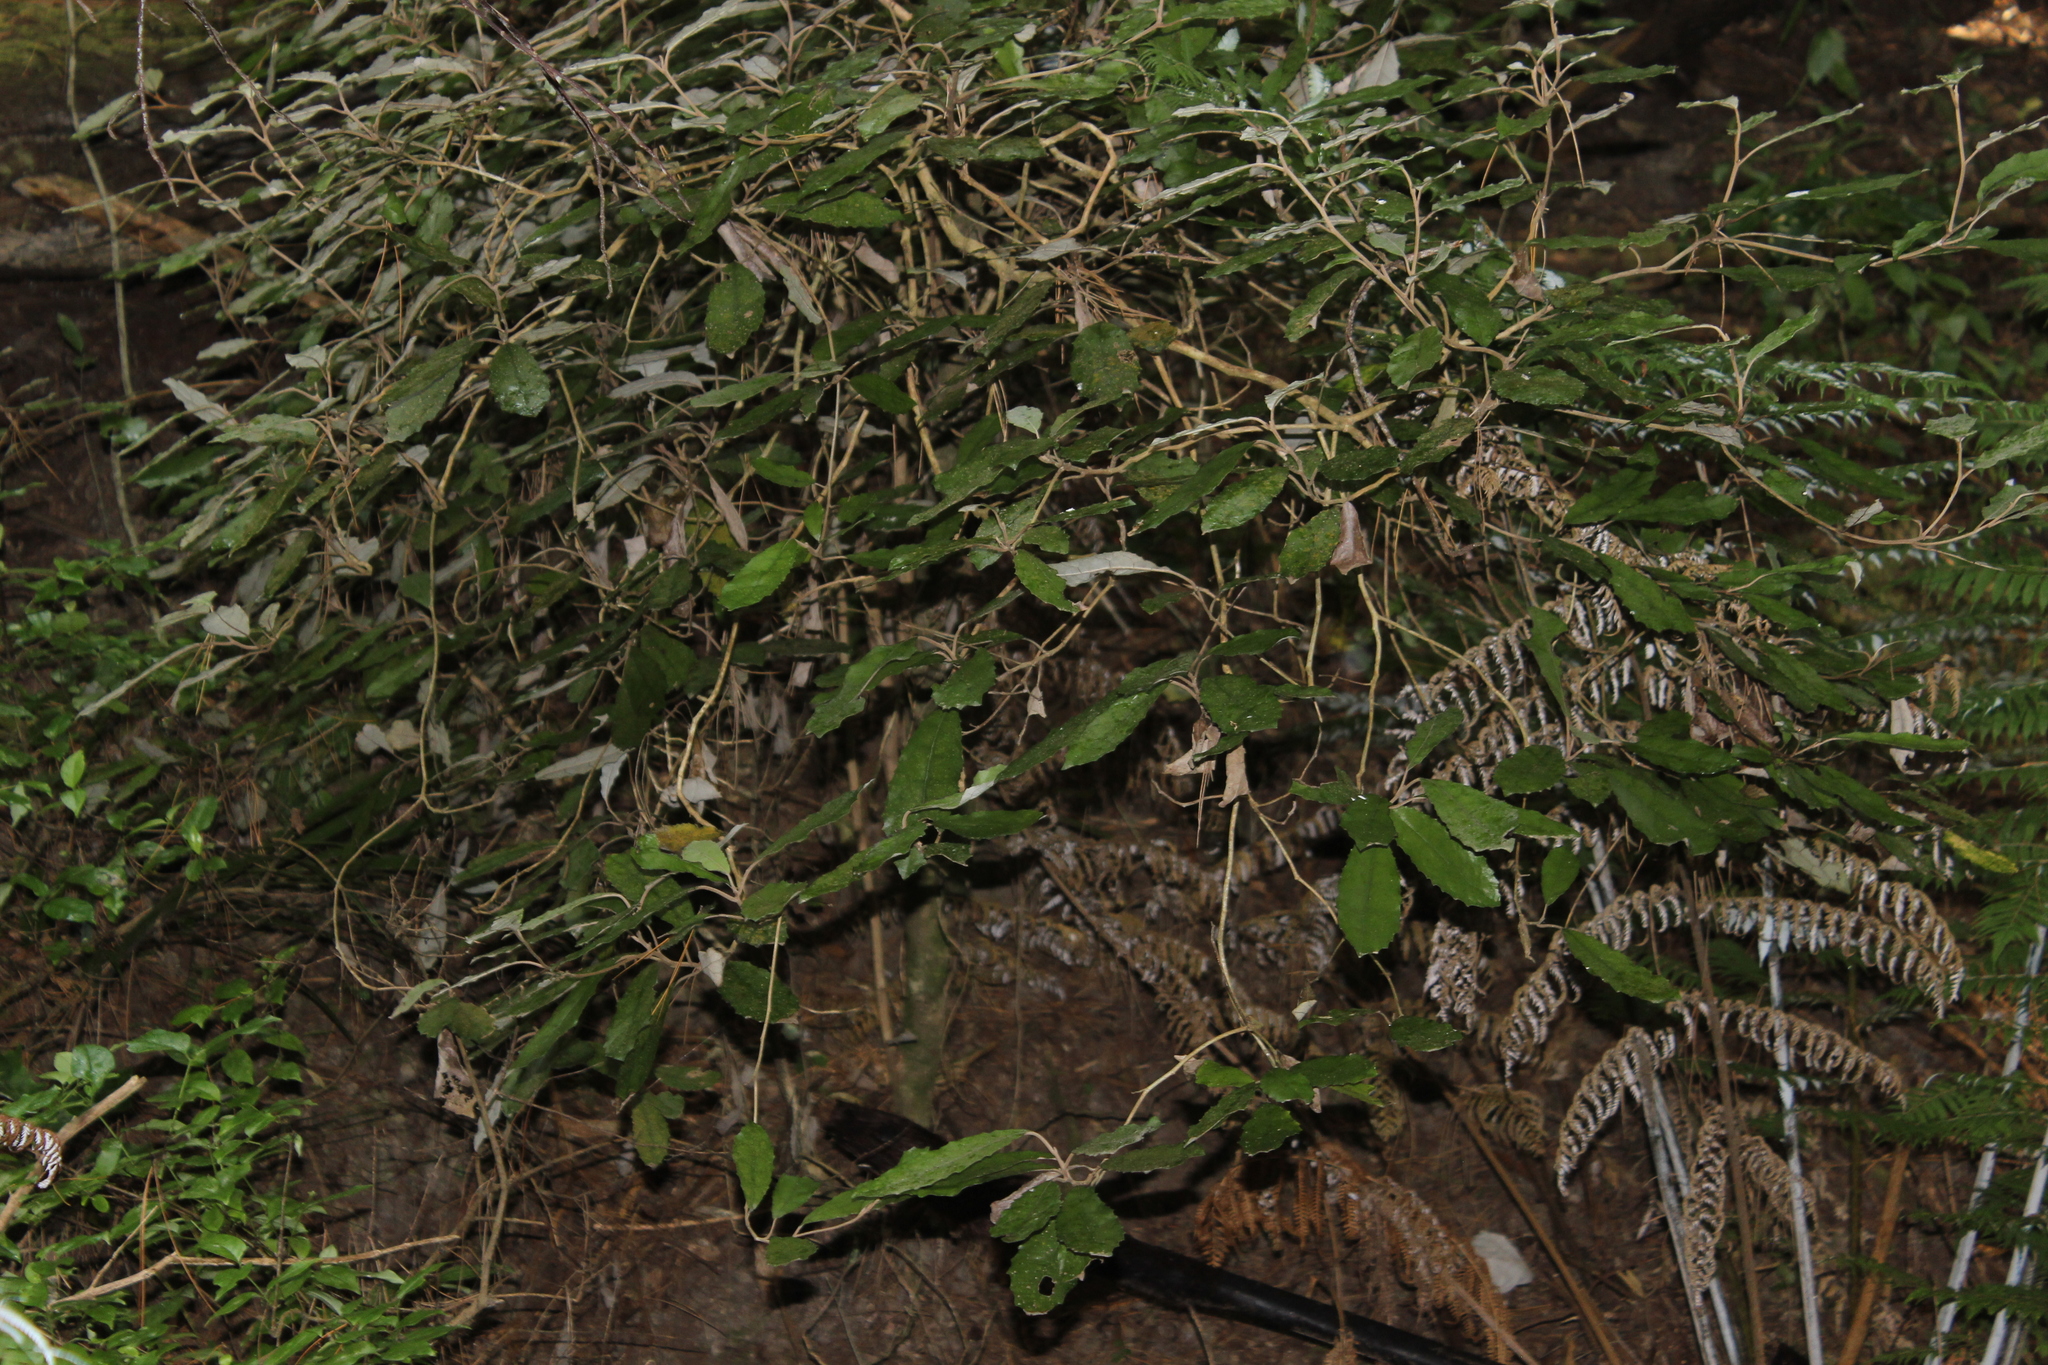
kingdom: Plantae
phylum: Tracheophyta
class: Magnoliopsida
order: Asterales
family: Asteraceae
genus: Olearia
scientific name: Olearia rani
